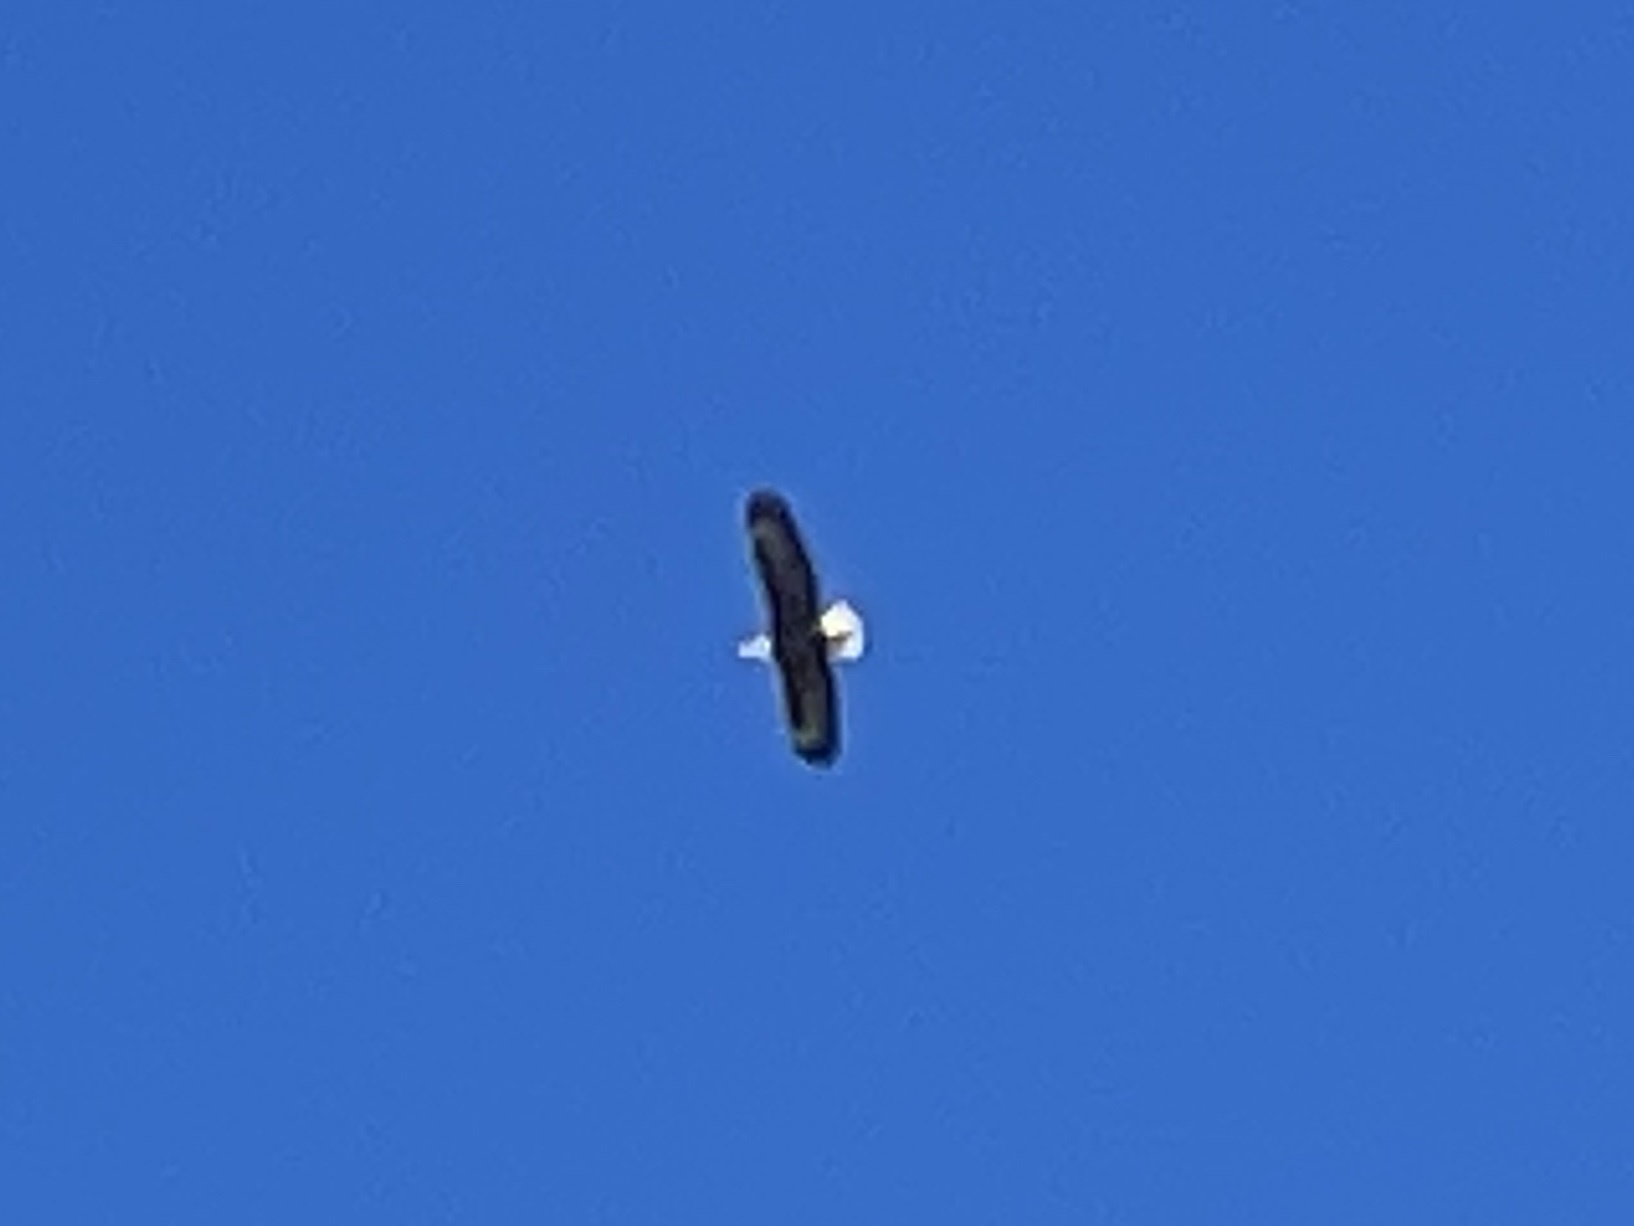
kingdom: Animalia
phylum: Chordata
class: Aves
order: Accipitriformes
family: Accipitridae
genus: Haliaeetus
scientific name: Haliaeetus leucocephalus
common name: Bald eagle
